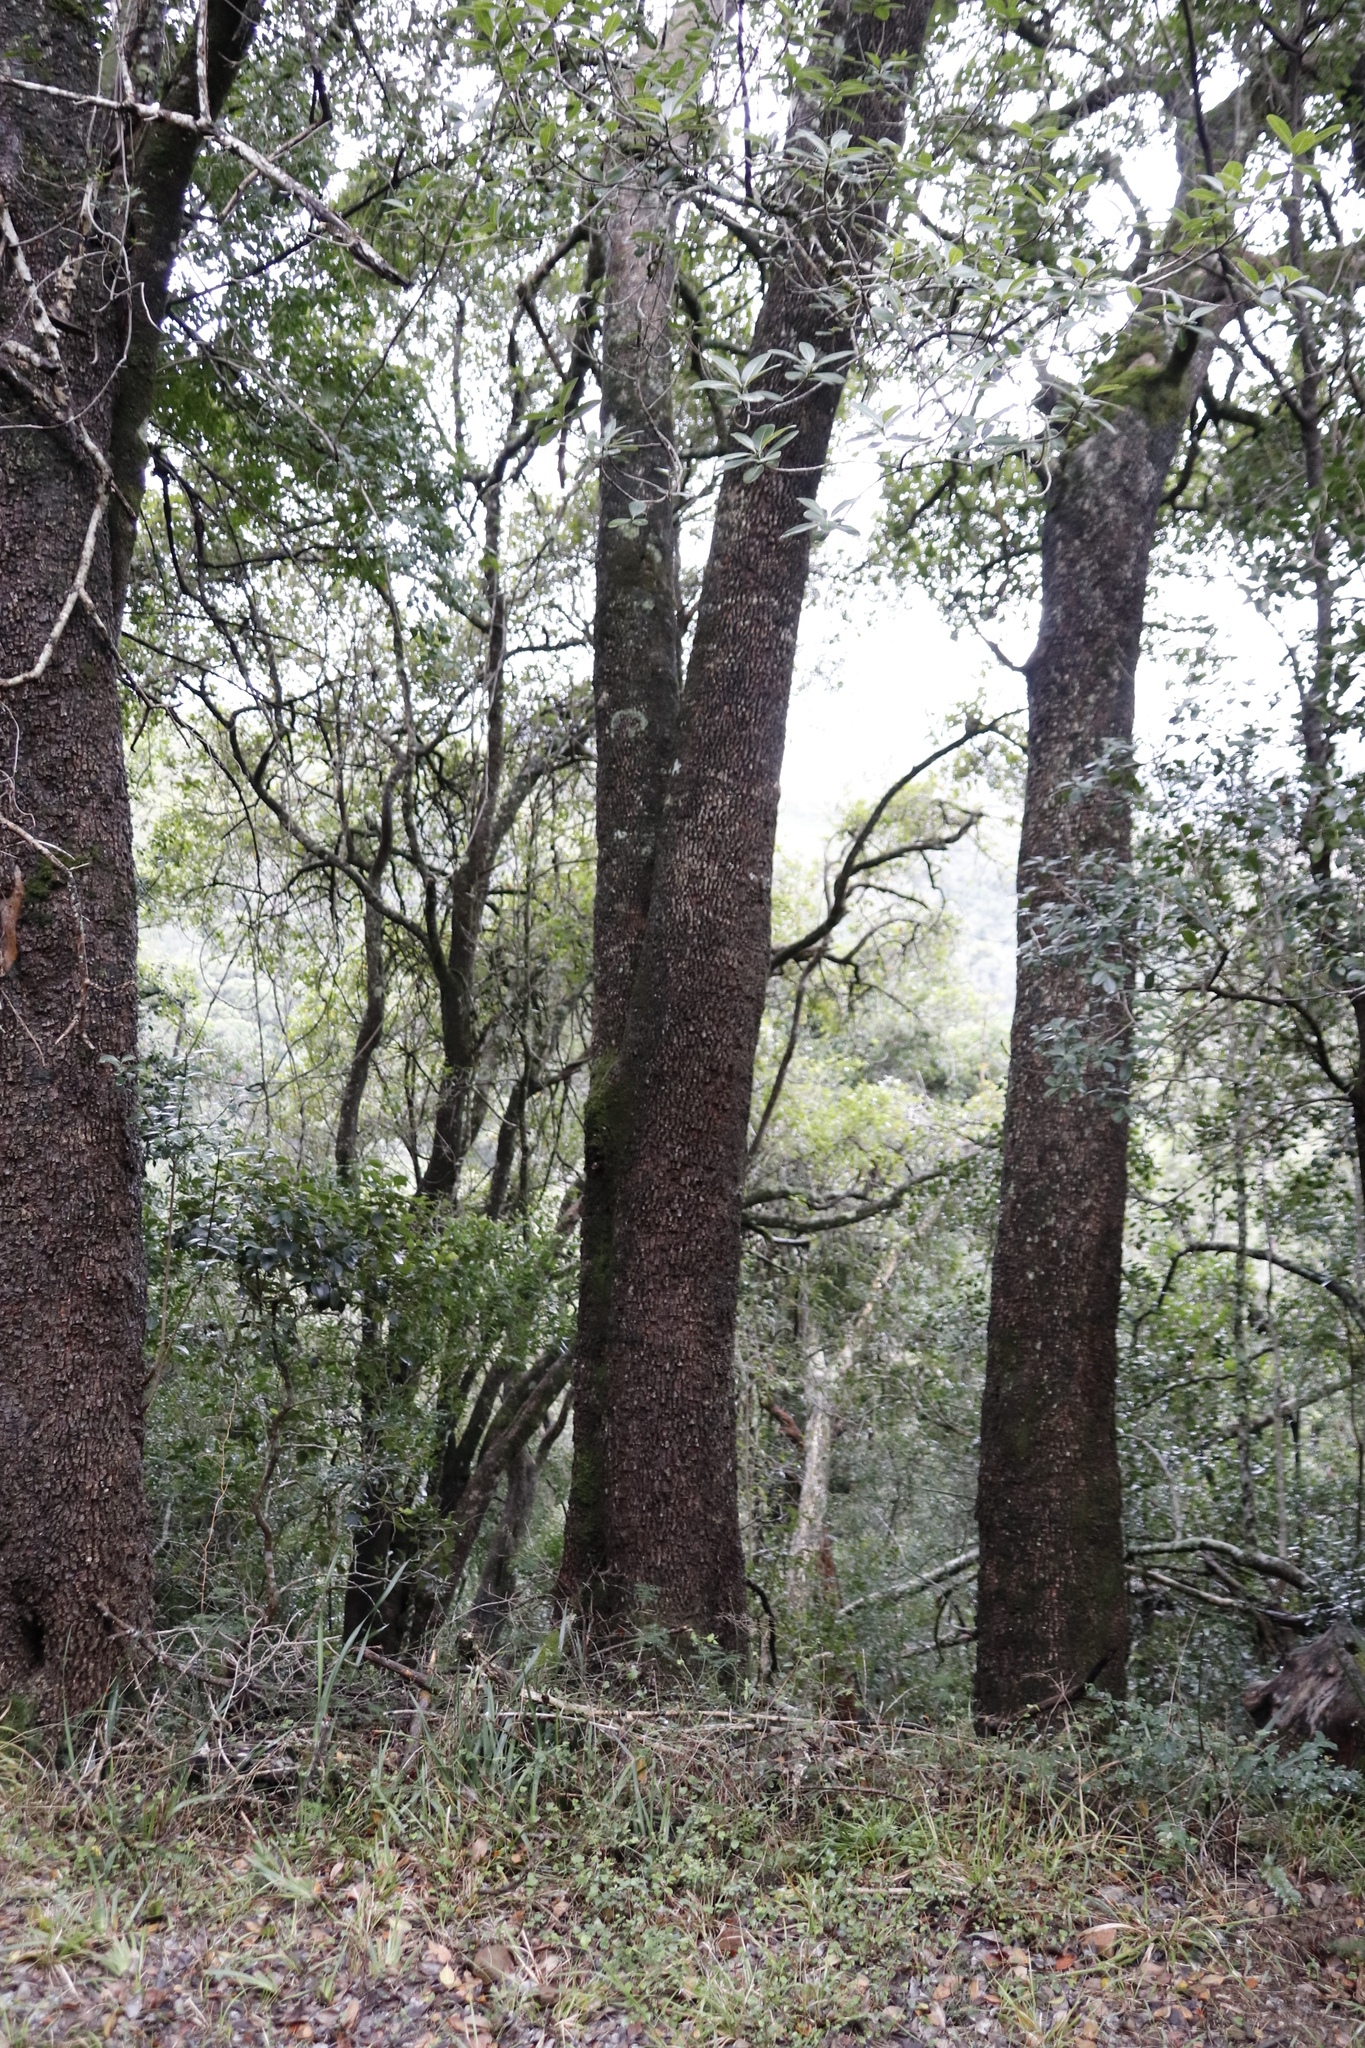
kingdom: Plantae
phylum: Tracheophyta
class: Magnoliopsida
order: Ericales
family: Sapotaceae
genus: Sideroxylon
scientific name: Sideroxylon inerme
